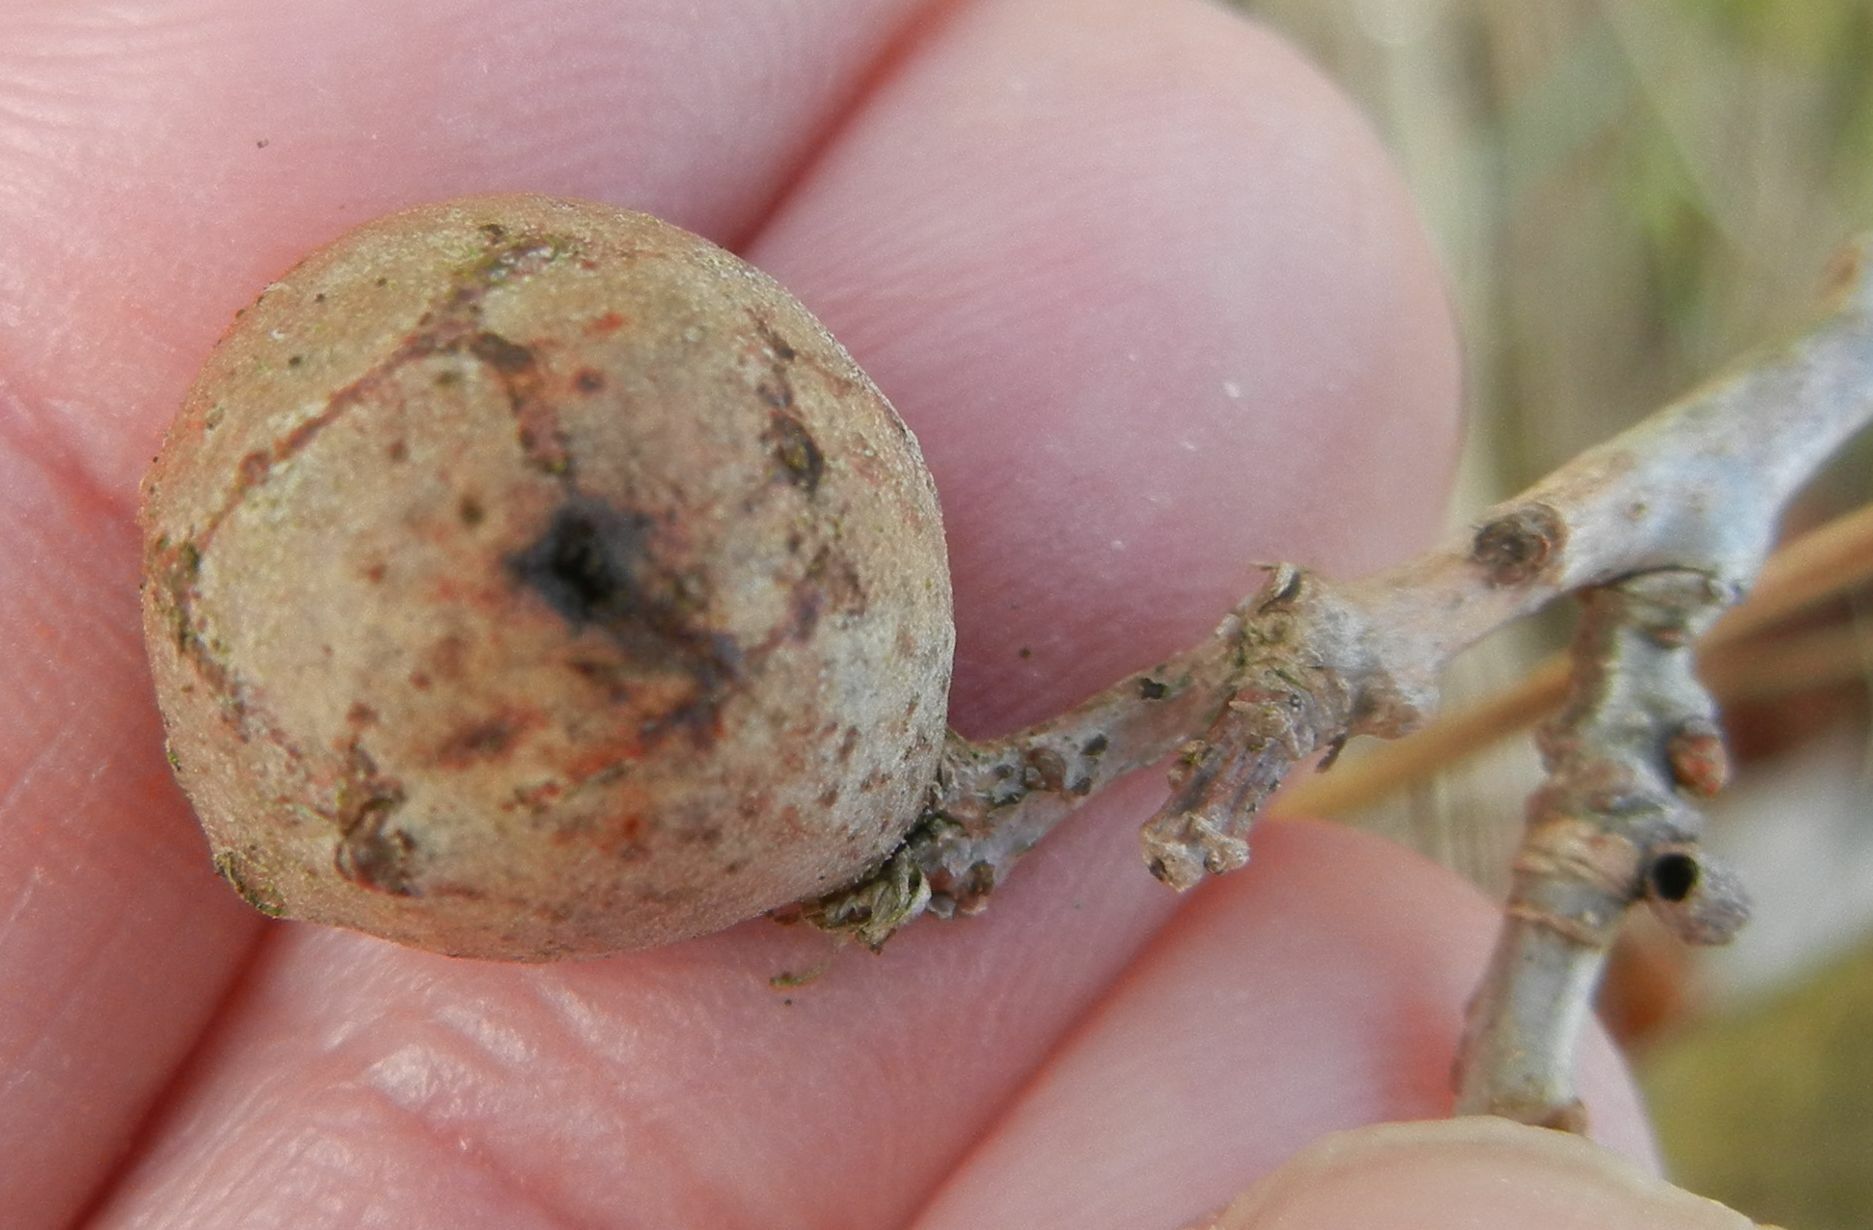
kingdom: Animalia
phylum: Arthropoda
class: Insecta
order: Hymenoptera
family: Cynipidae
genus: Andricus
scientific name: Andricus infectorius
